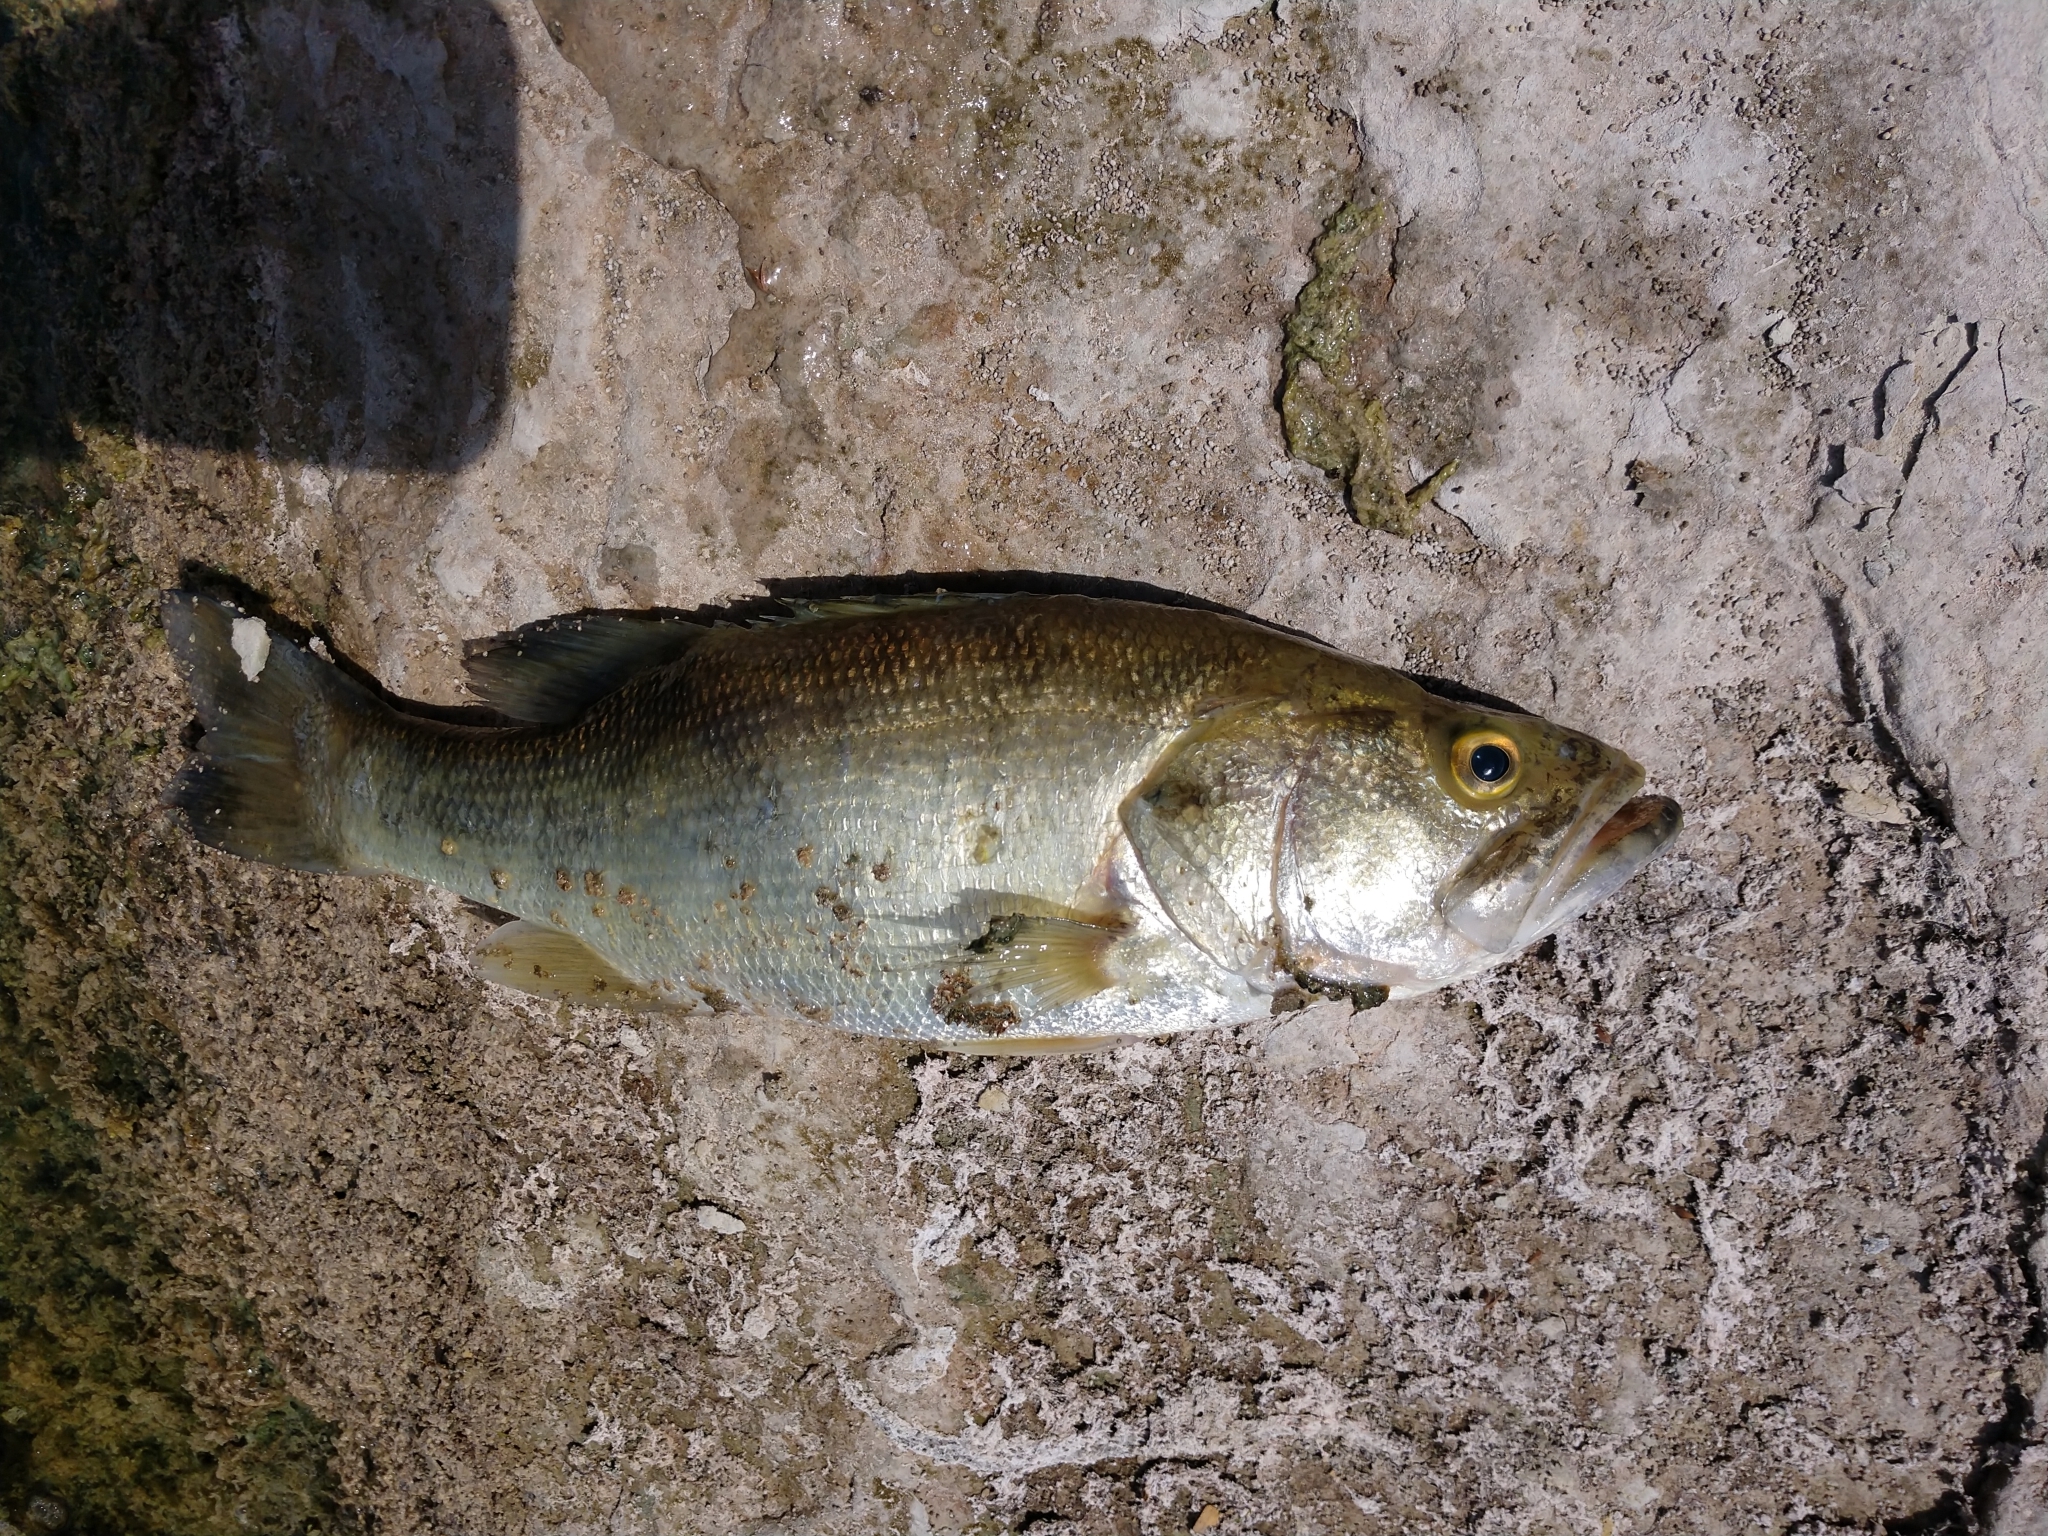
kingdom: Animalia
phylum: Chordata
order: Perciformes
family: Centrarchidae
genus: Micropterus
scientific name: Micropterus
